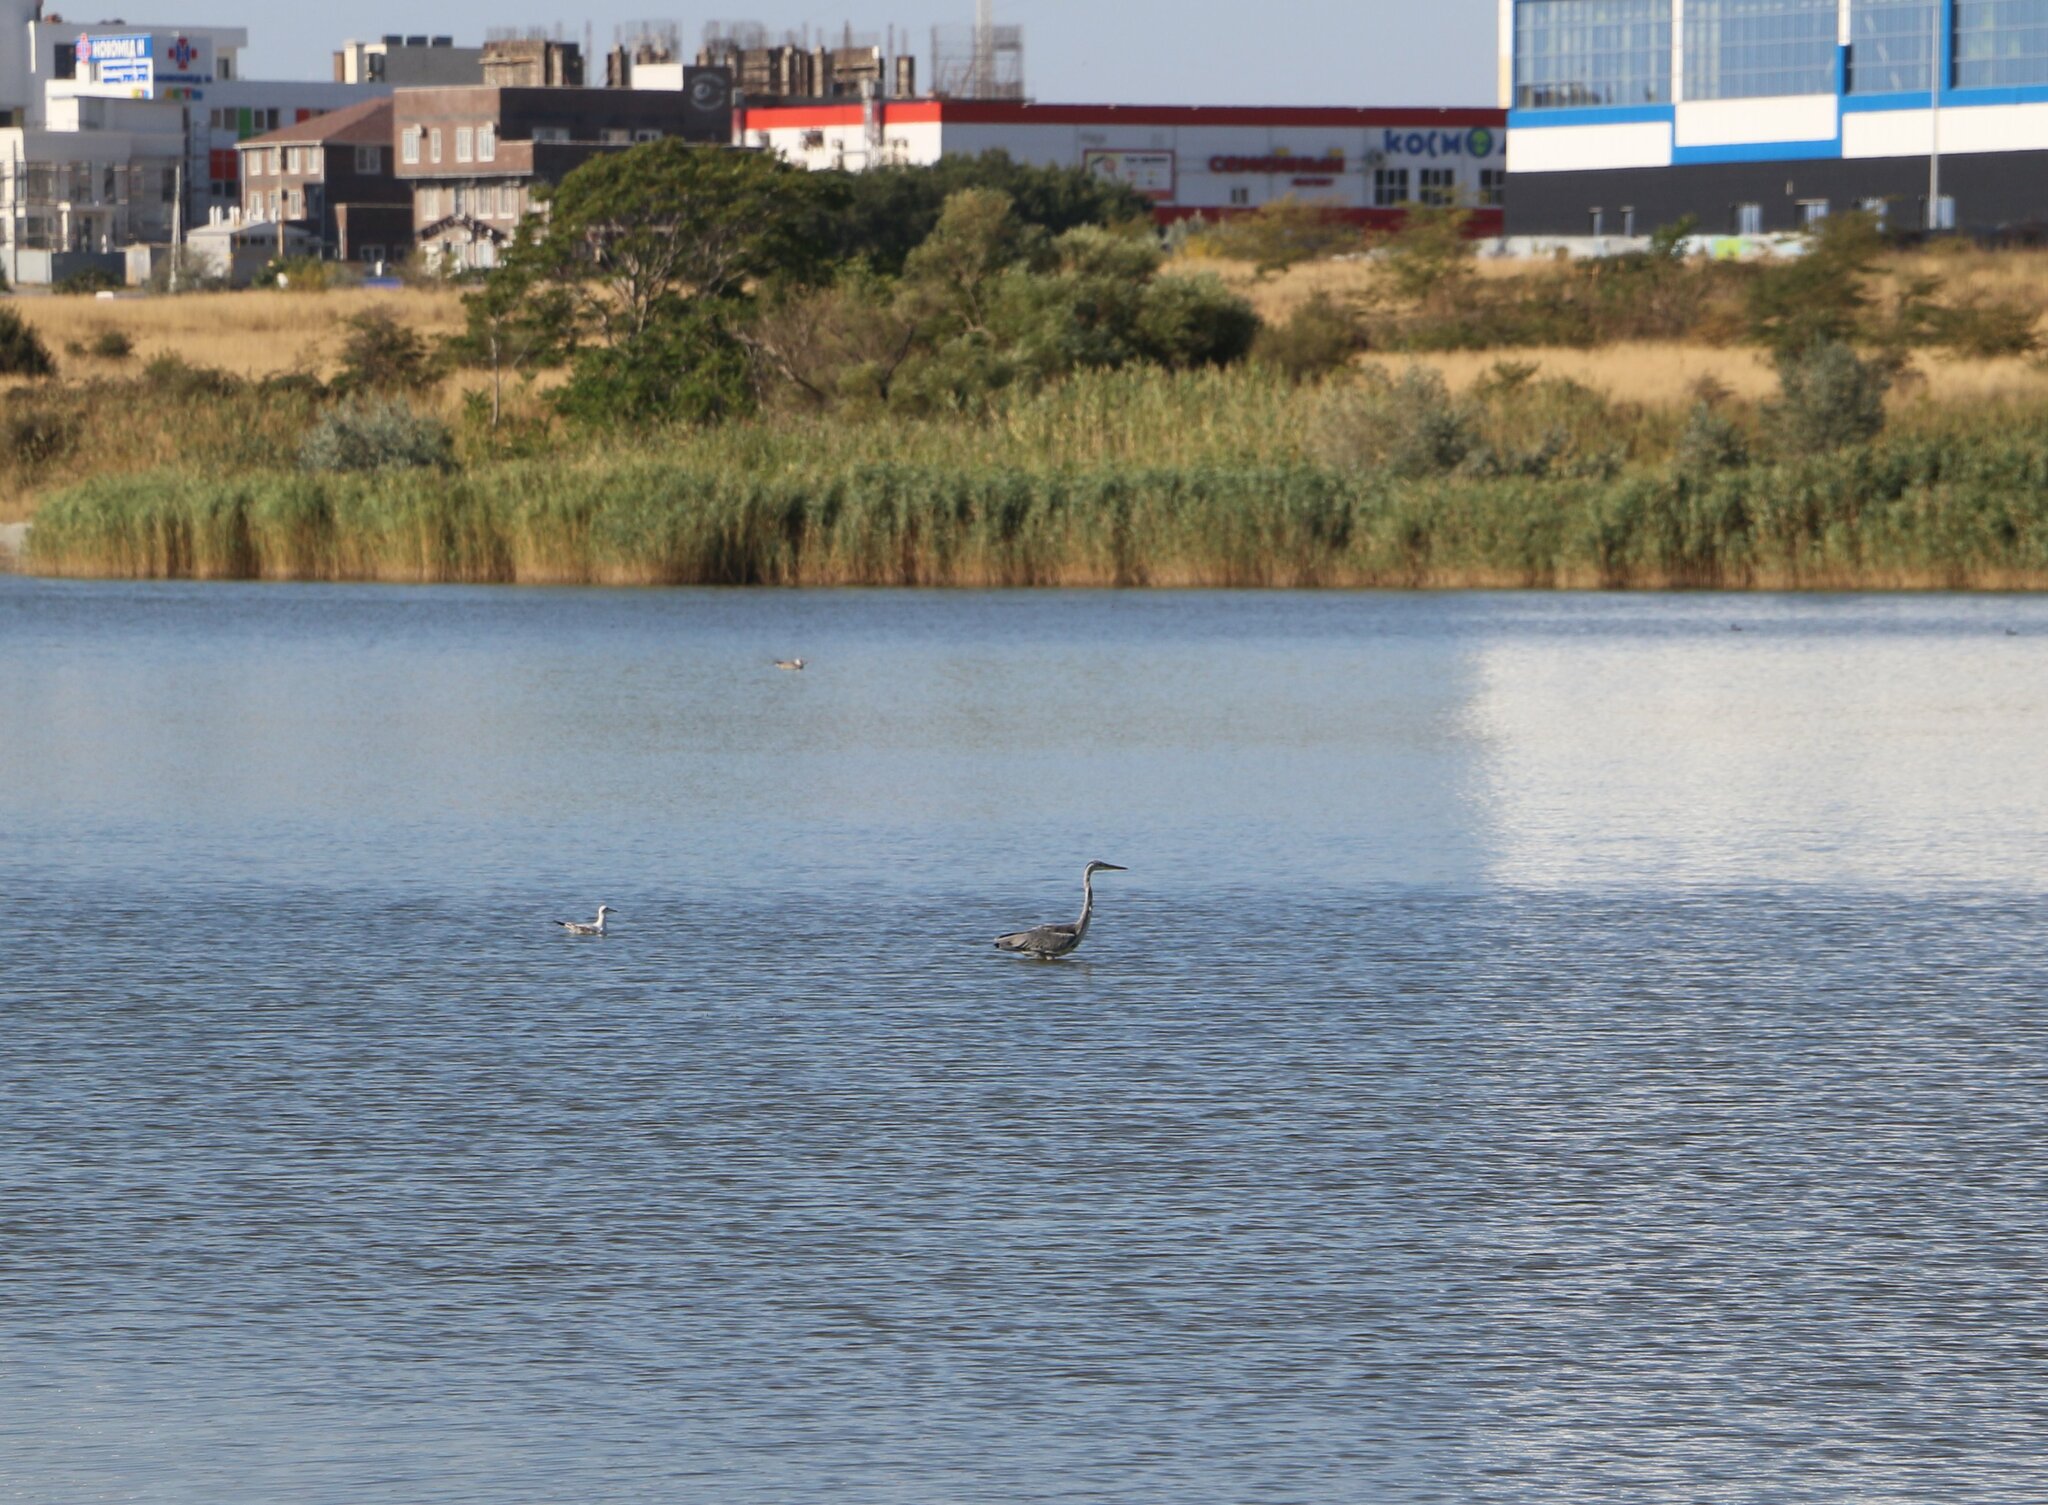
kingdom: Animalia
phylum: Chordata
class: Aves
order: Pelecaniformes
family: Ardeidae
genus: Ardea
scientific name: Ardea cinerea
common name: Grey heron
